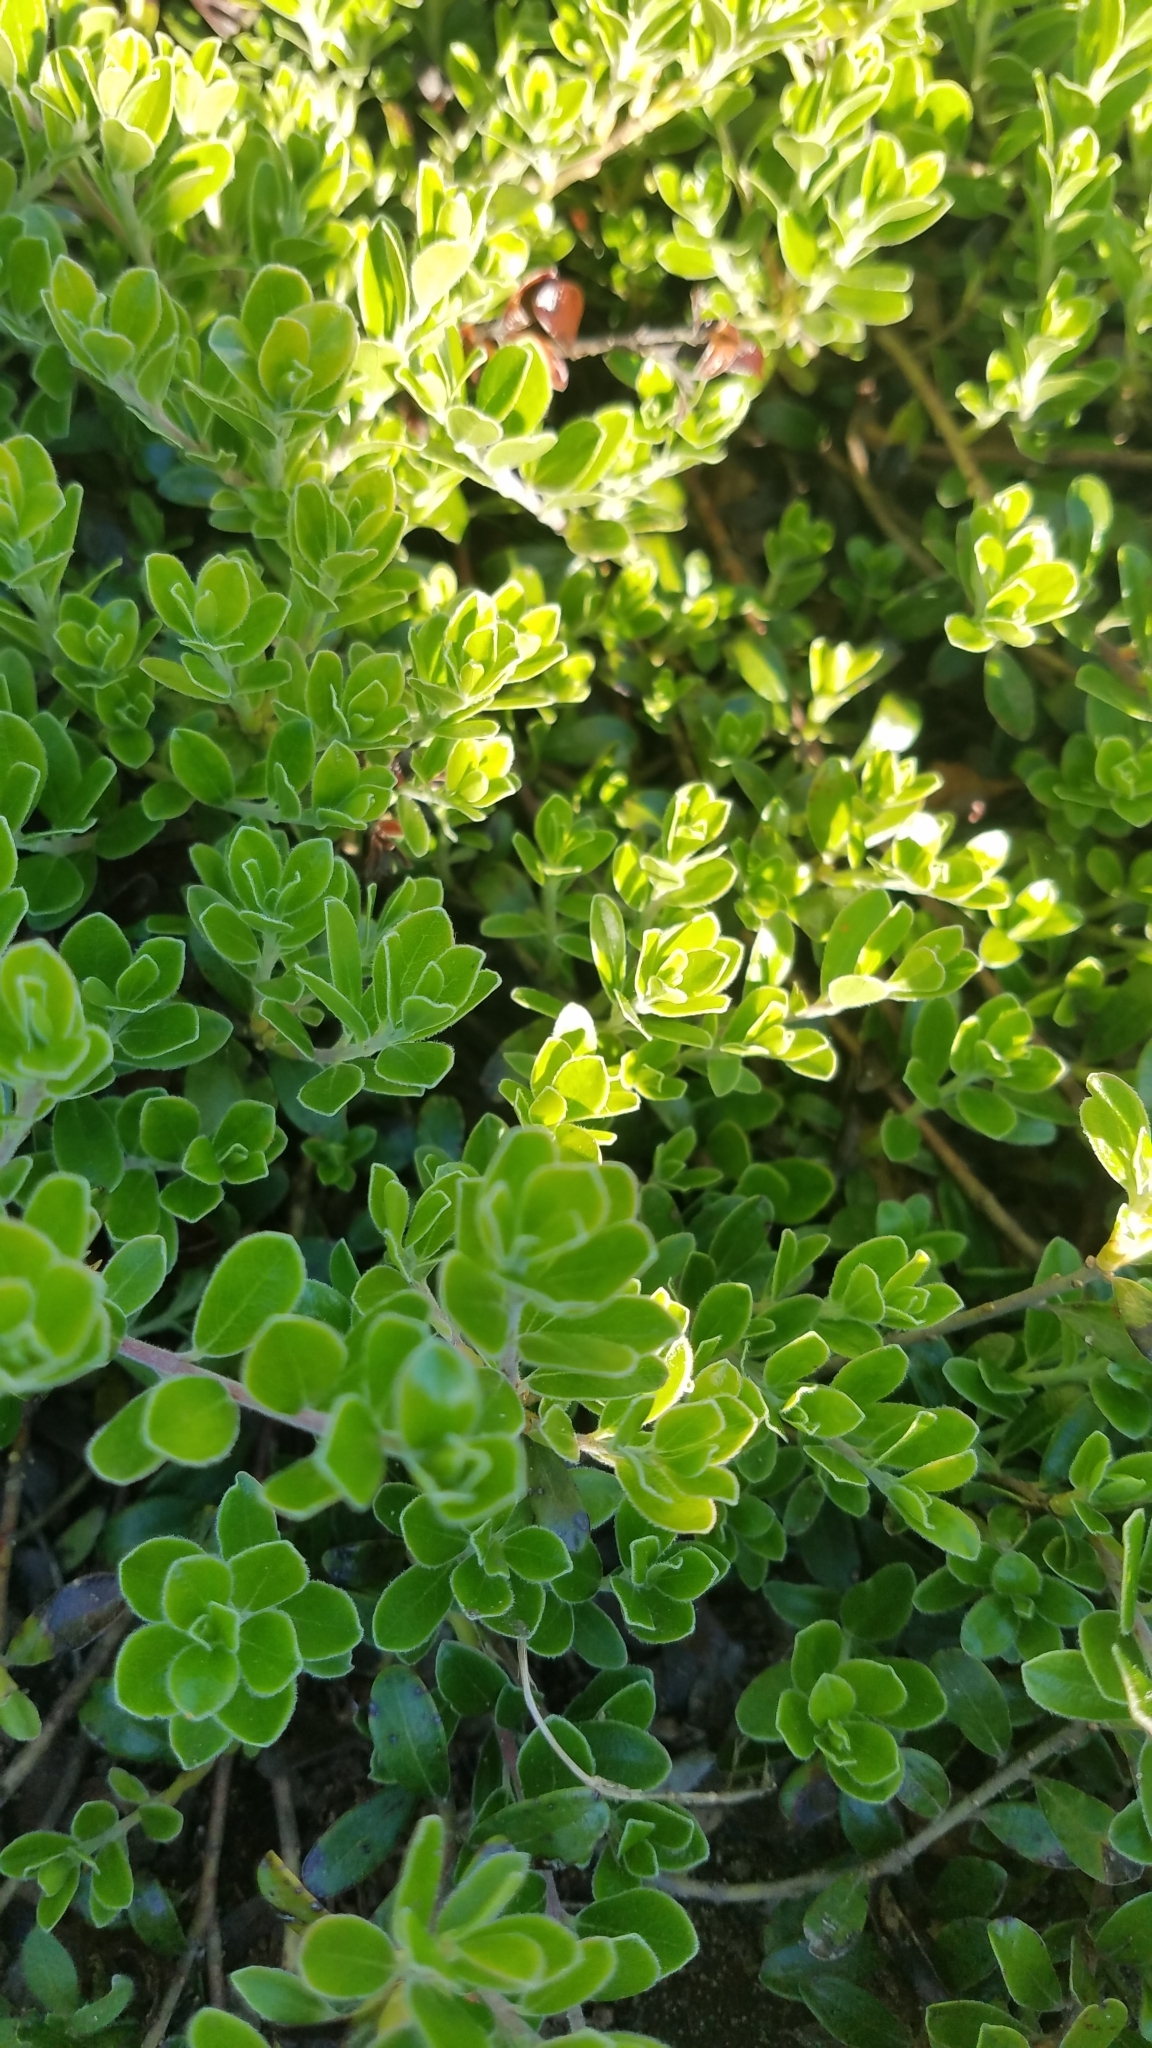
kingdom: Plantae
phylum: Tracheophyta
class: Magnoliopsida
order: Ericales
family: Ericaceae
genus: Arctostaphylos
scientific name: Arctostaphylos uva-ursi
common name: Bearberry
